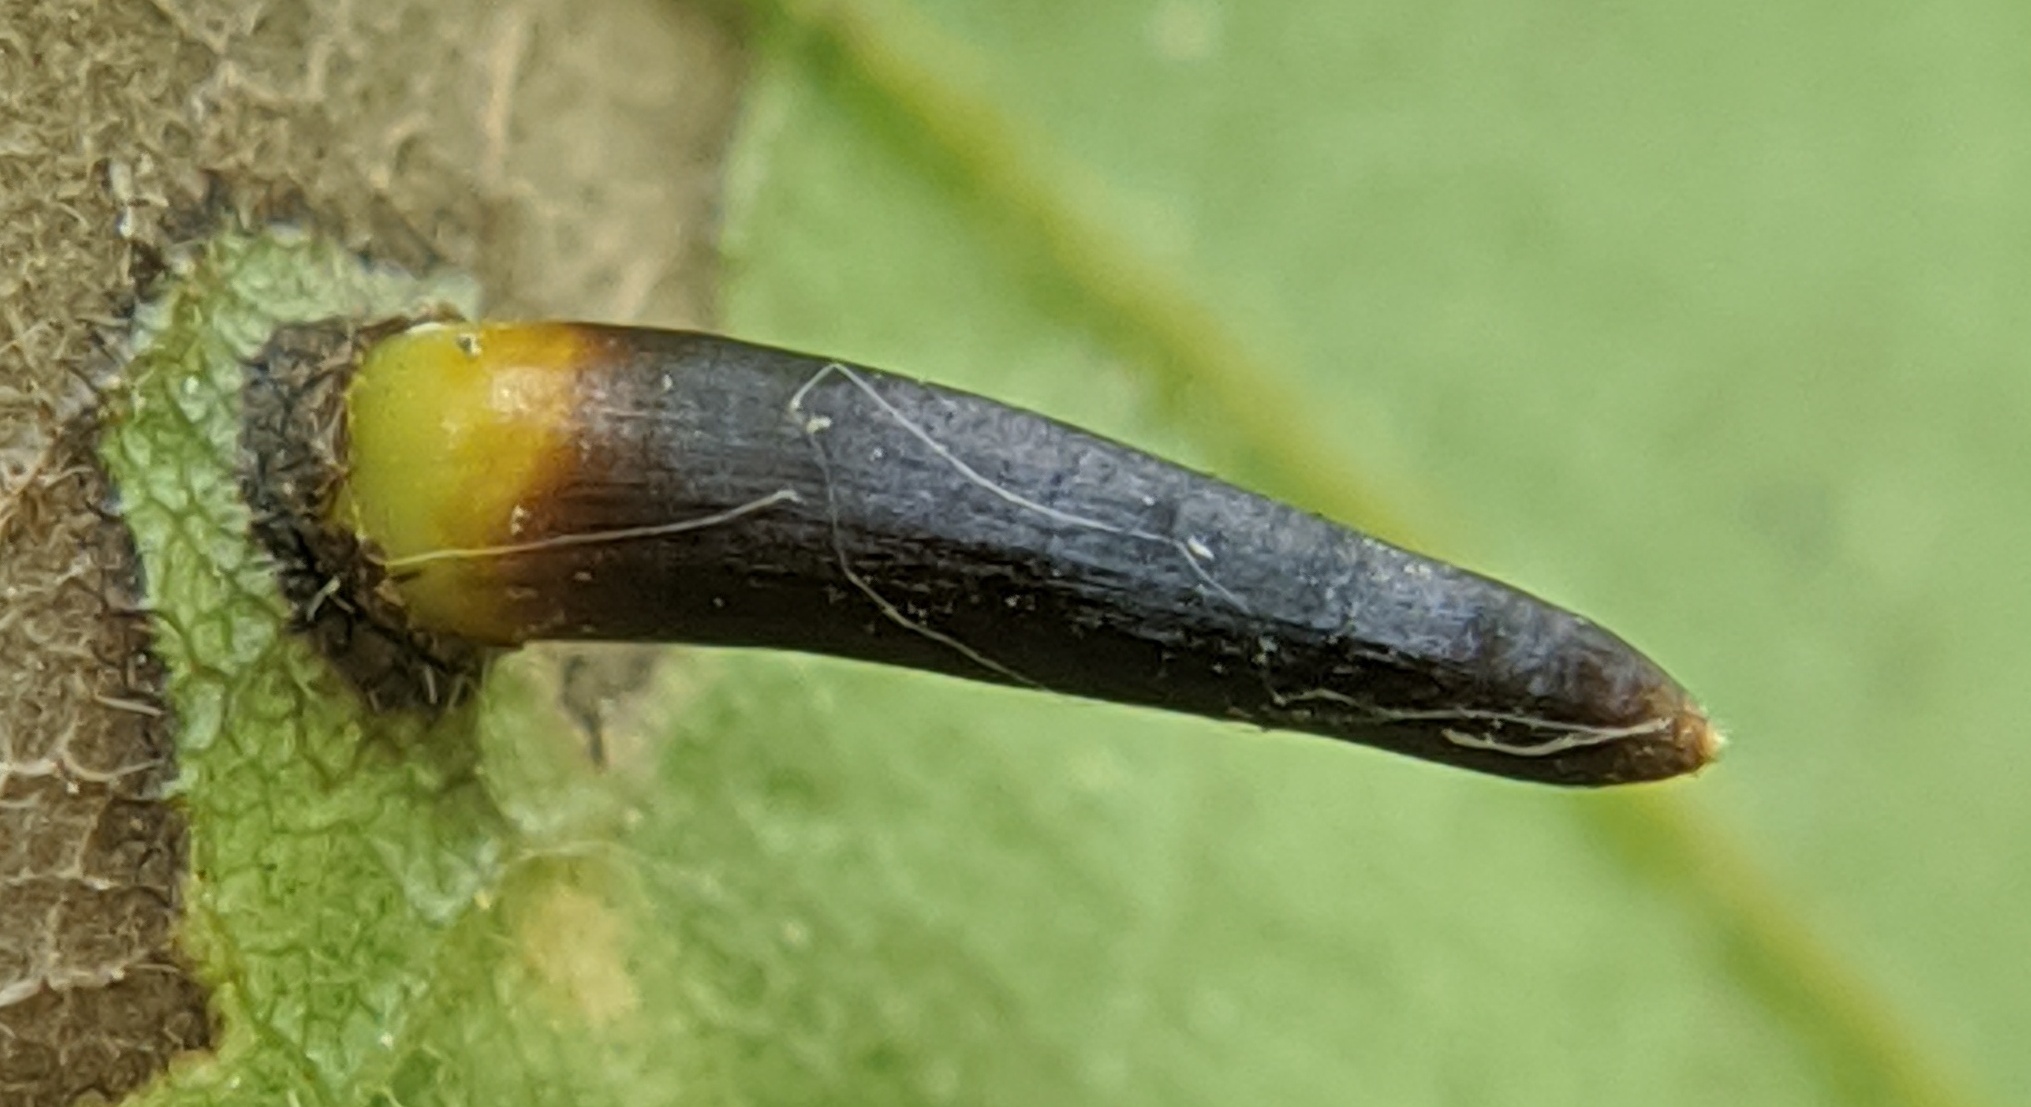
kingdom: Animalia
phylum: Arthropoda
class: Insecta
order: Diptera
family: Cecidomyiidae
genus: Caryomyia
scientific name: Caryomyia subulata
